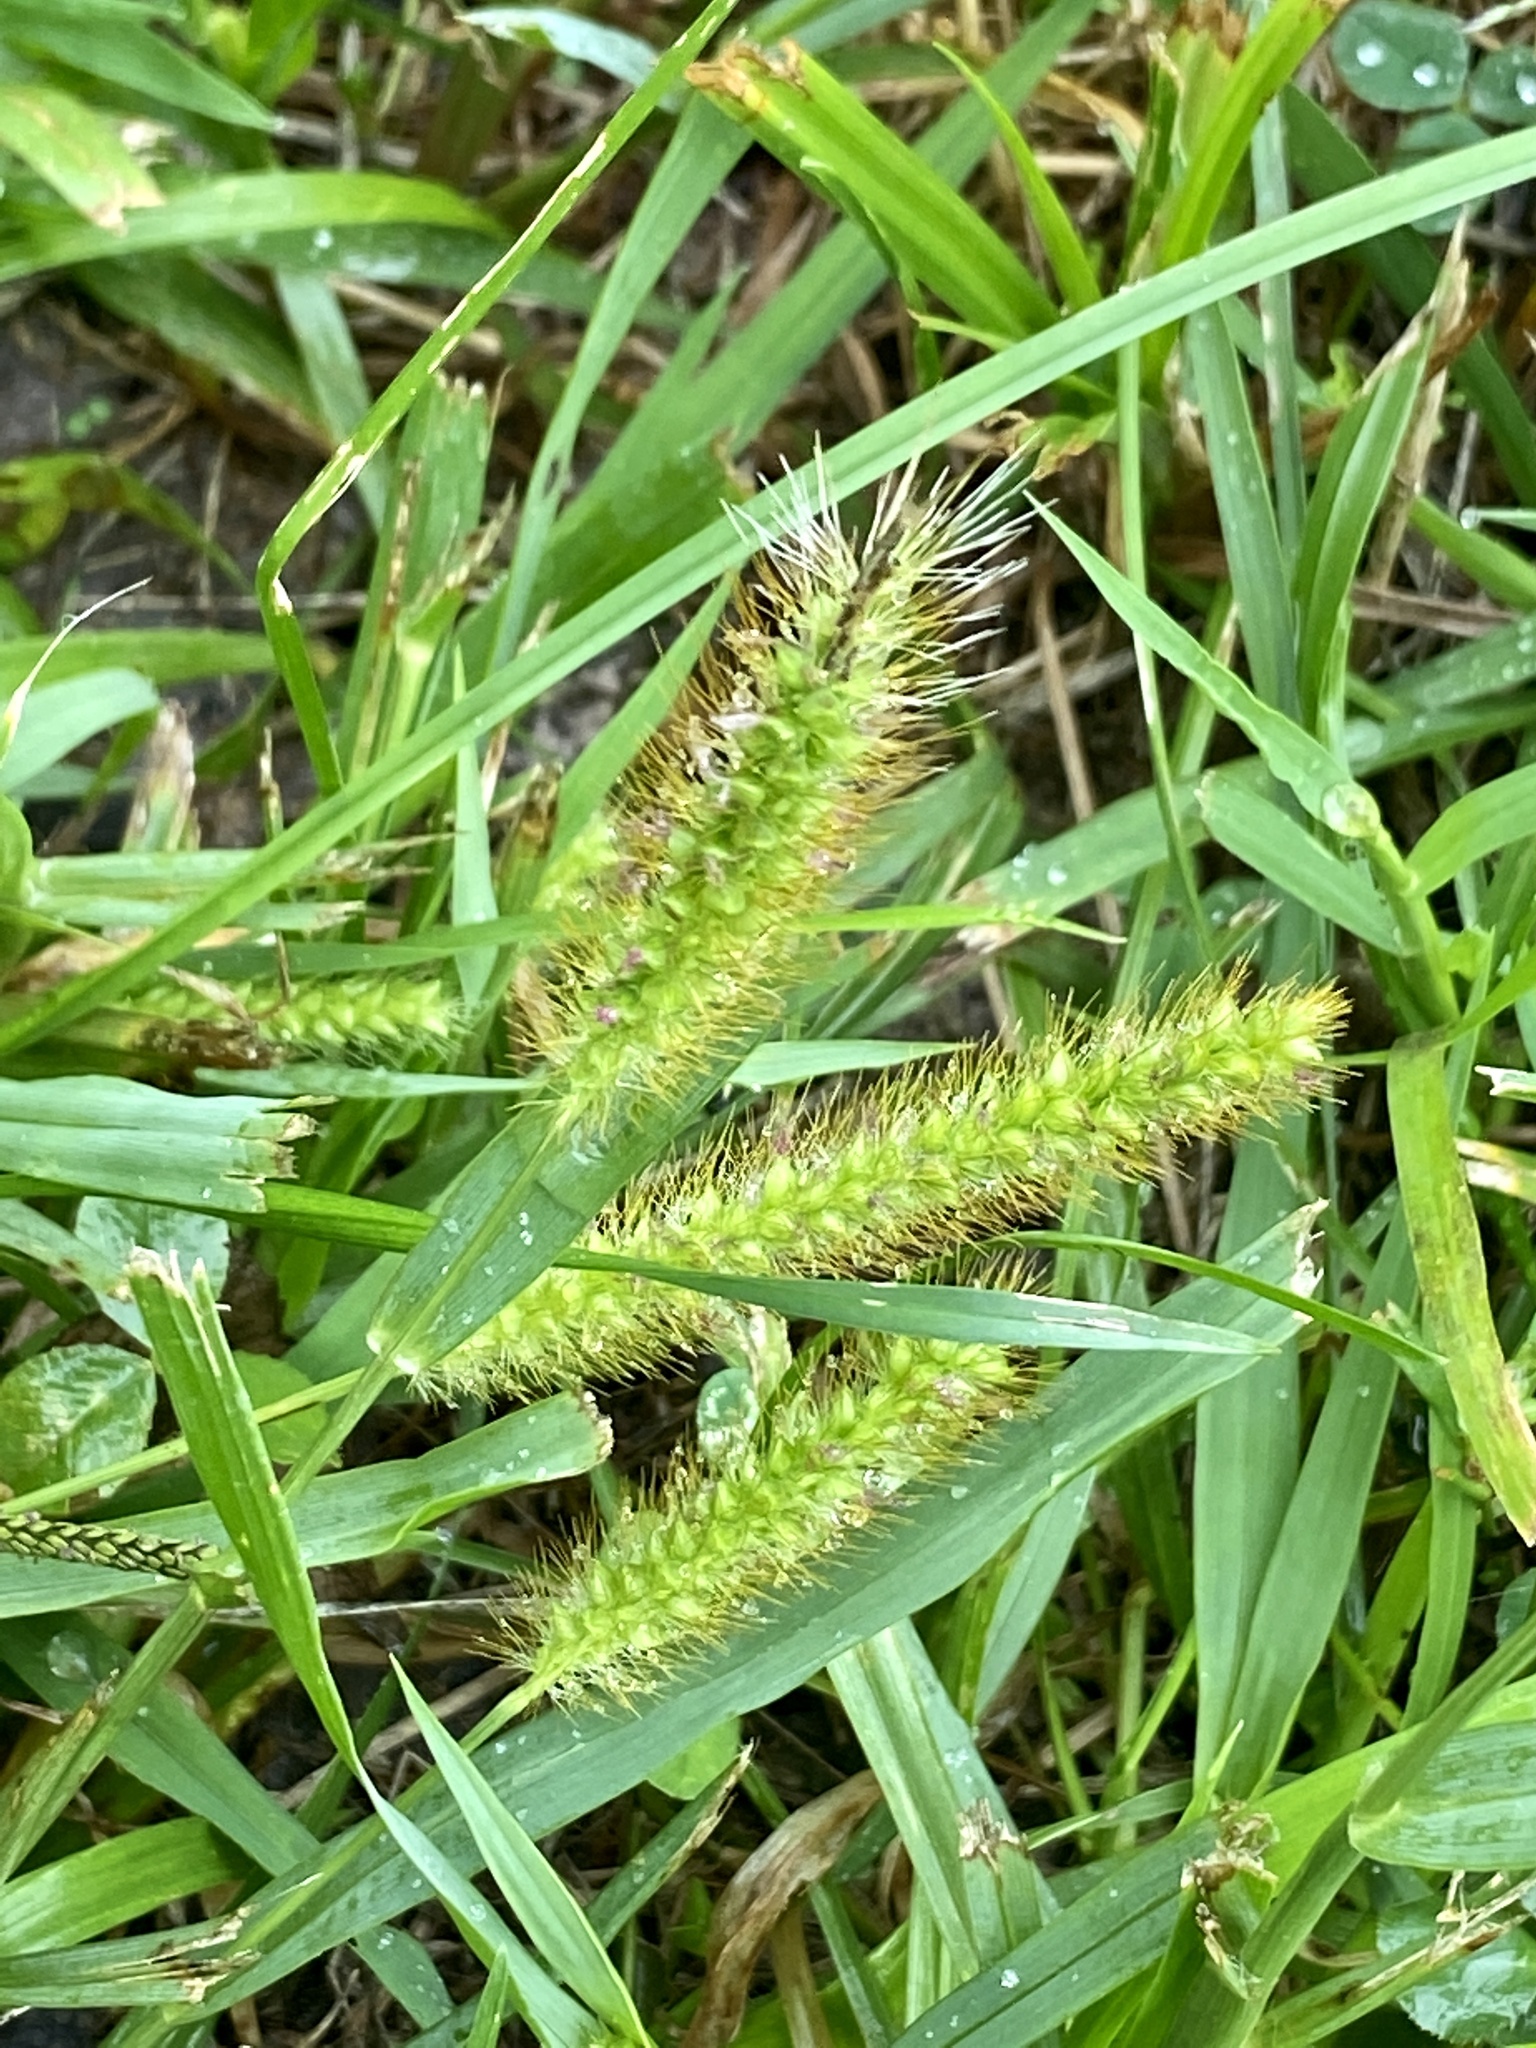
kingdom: Plantae
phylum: Tracheophyta
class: Liliopsida
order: Poales
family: Poaceae
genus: Setaria
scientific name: Setaria pumila
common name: Yellow bristle-grass
